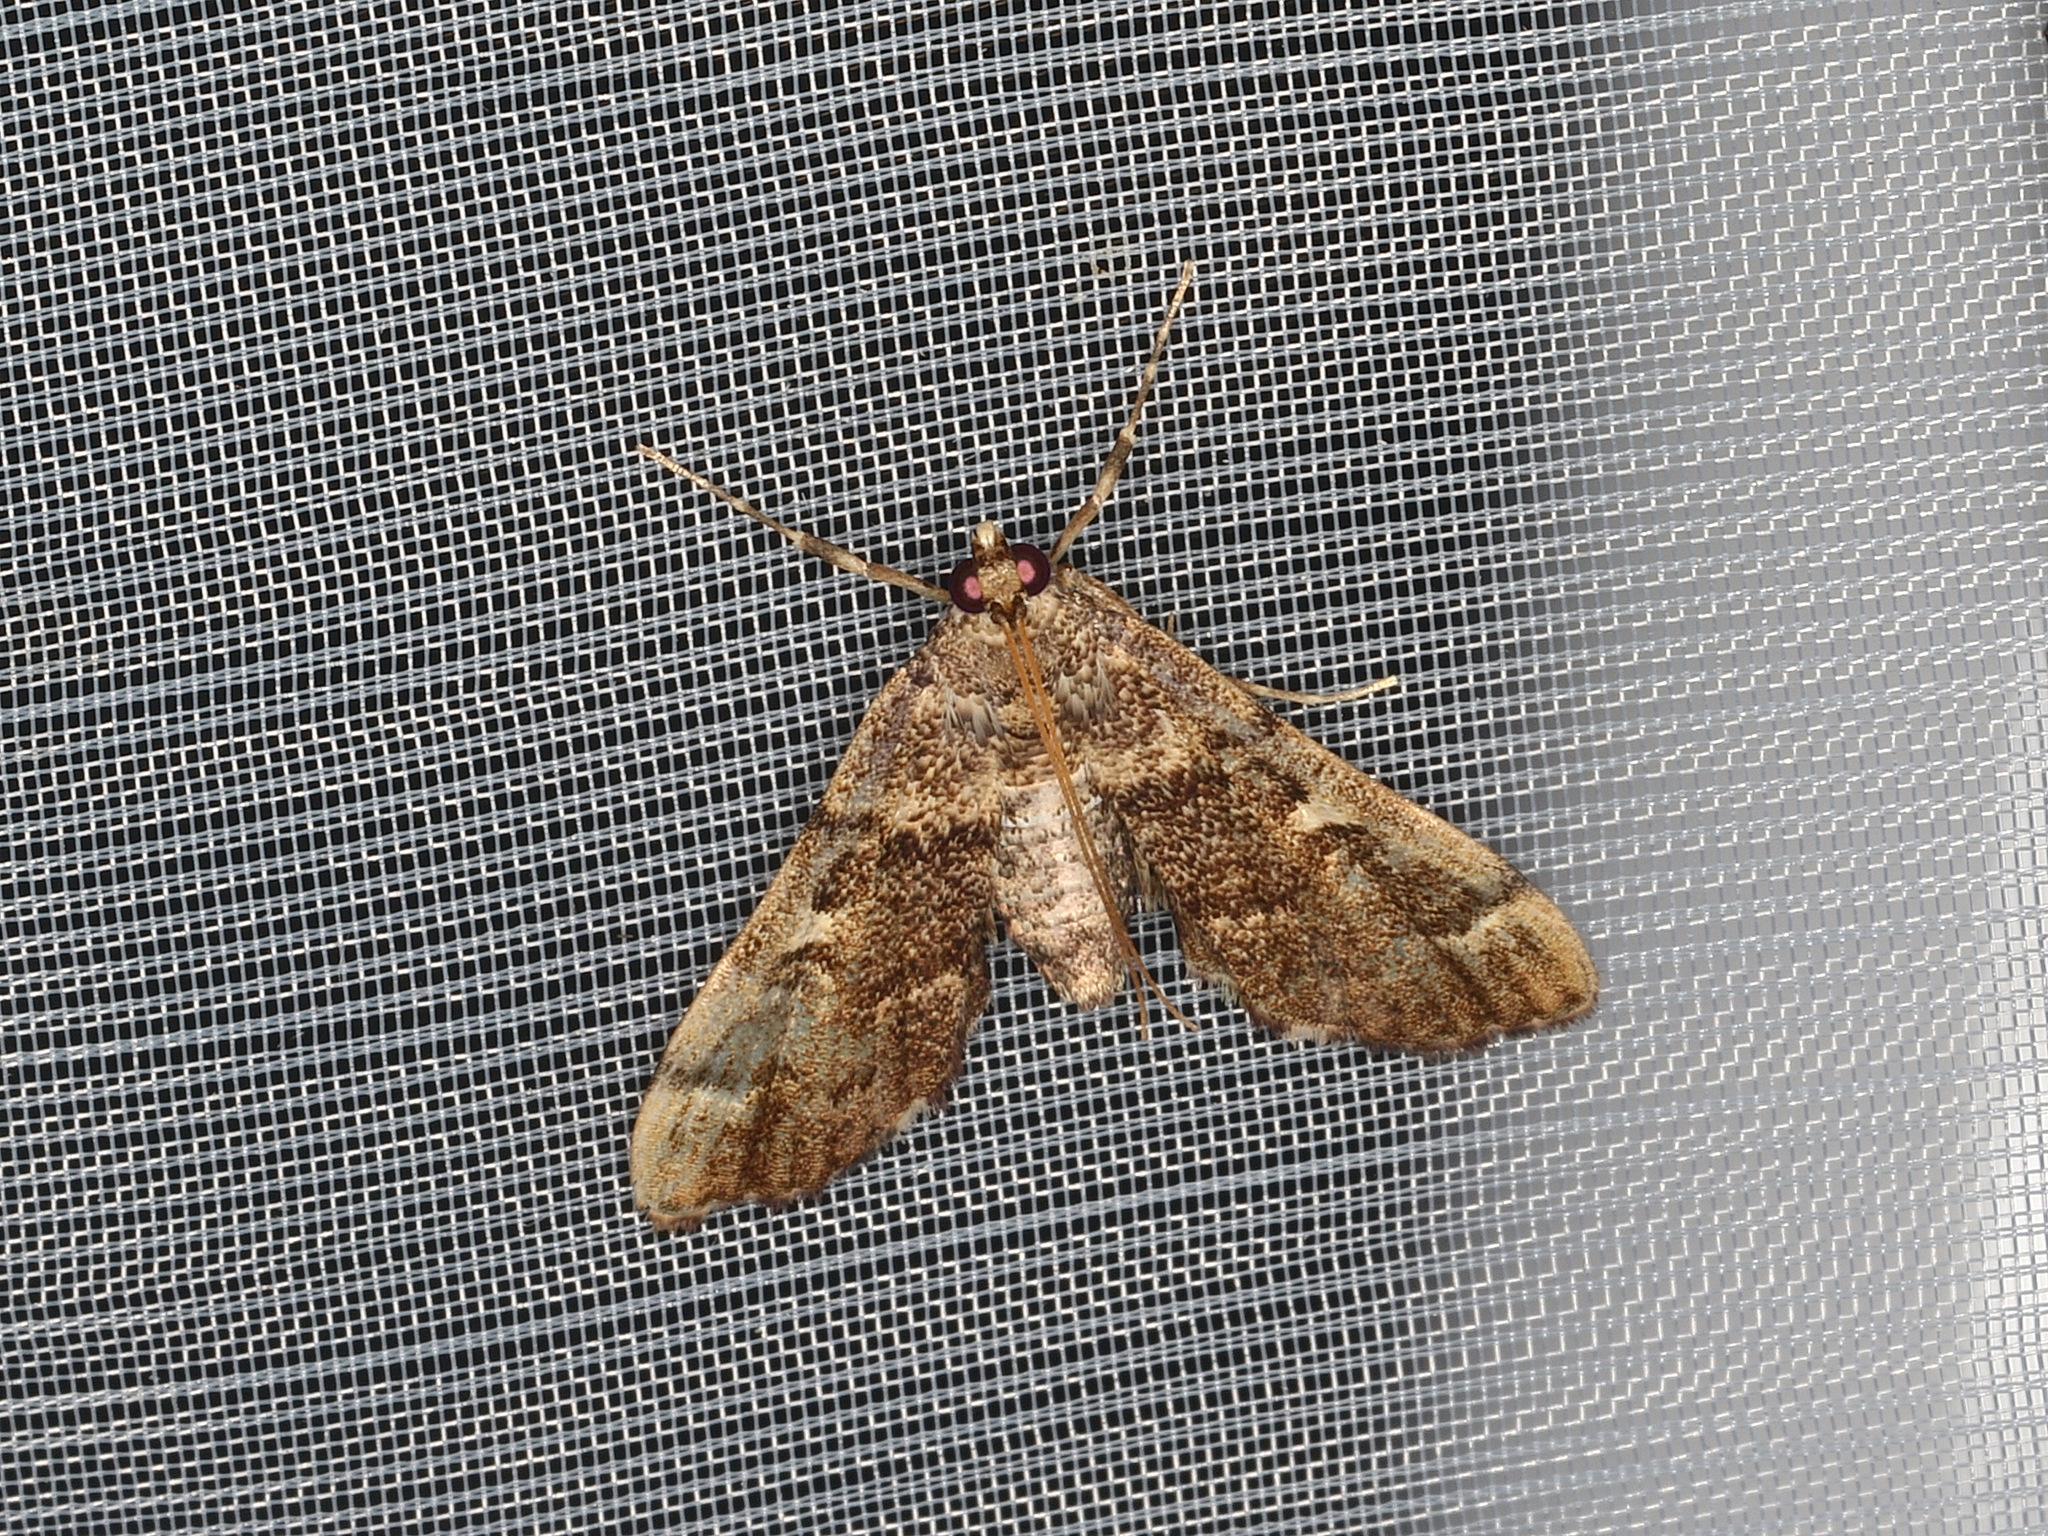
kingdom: Animalia
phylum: Arthropoda
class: Insecta
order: Lepidoptera
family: Crambidae
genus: Nacoleia
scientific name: Nacoleia rhoeoalis
